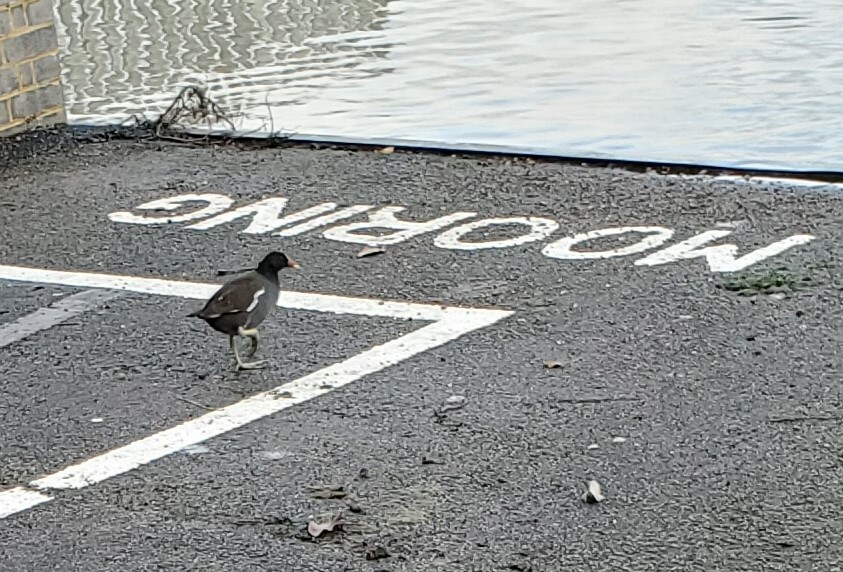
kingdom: Animalia
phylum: Chordata
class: Aves
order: Gruiformes
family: Rallidae
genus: Gallinula
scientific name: Gallinula chloropus
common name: Common moorhen
